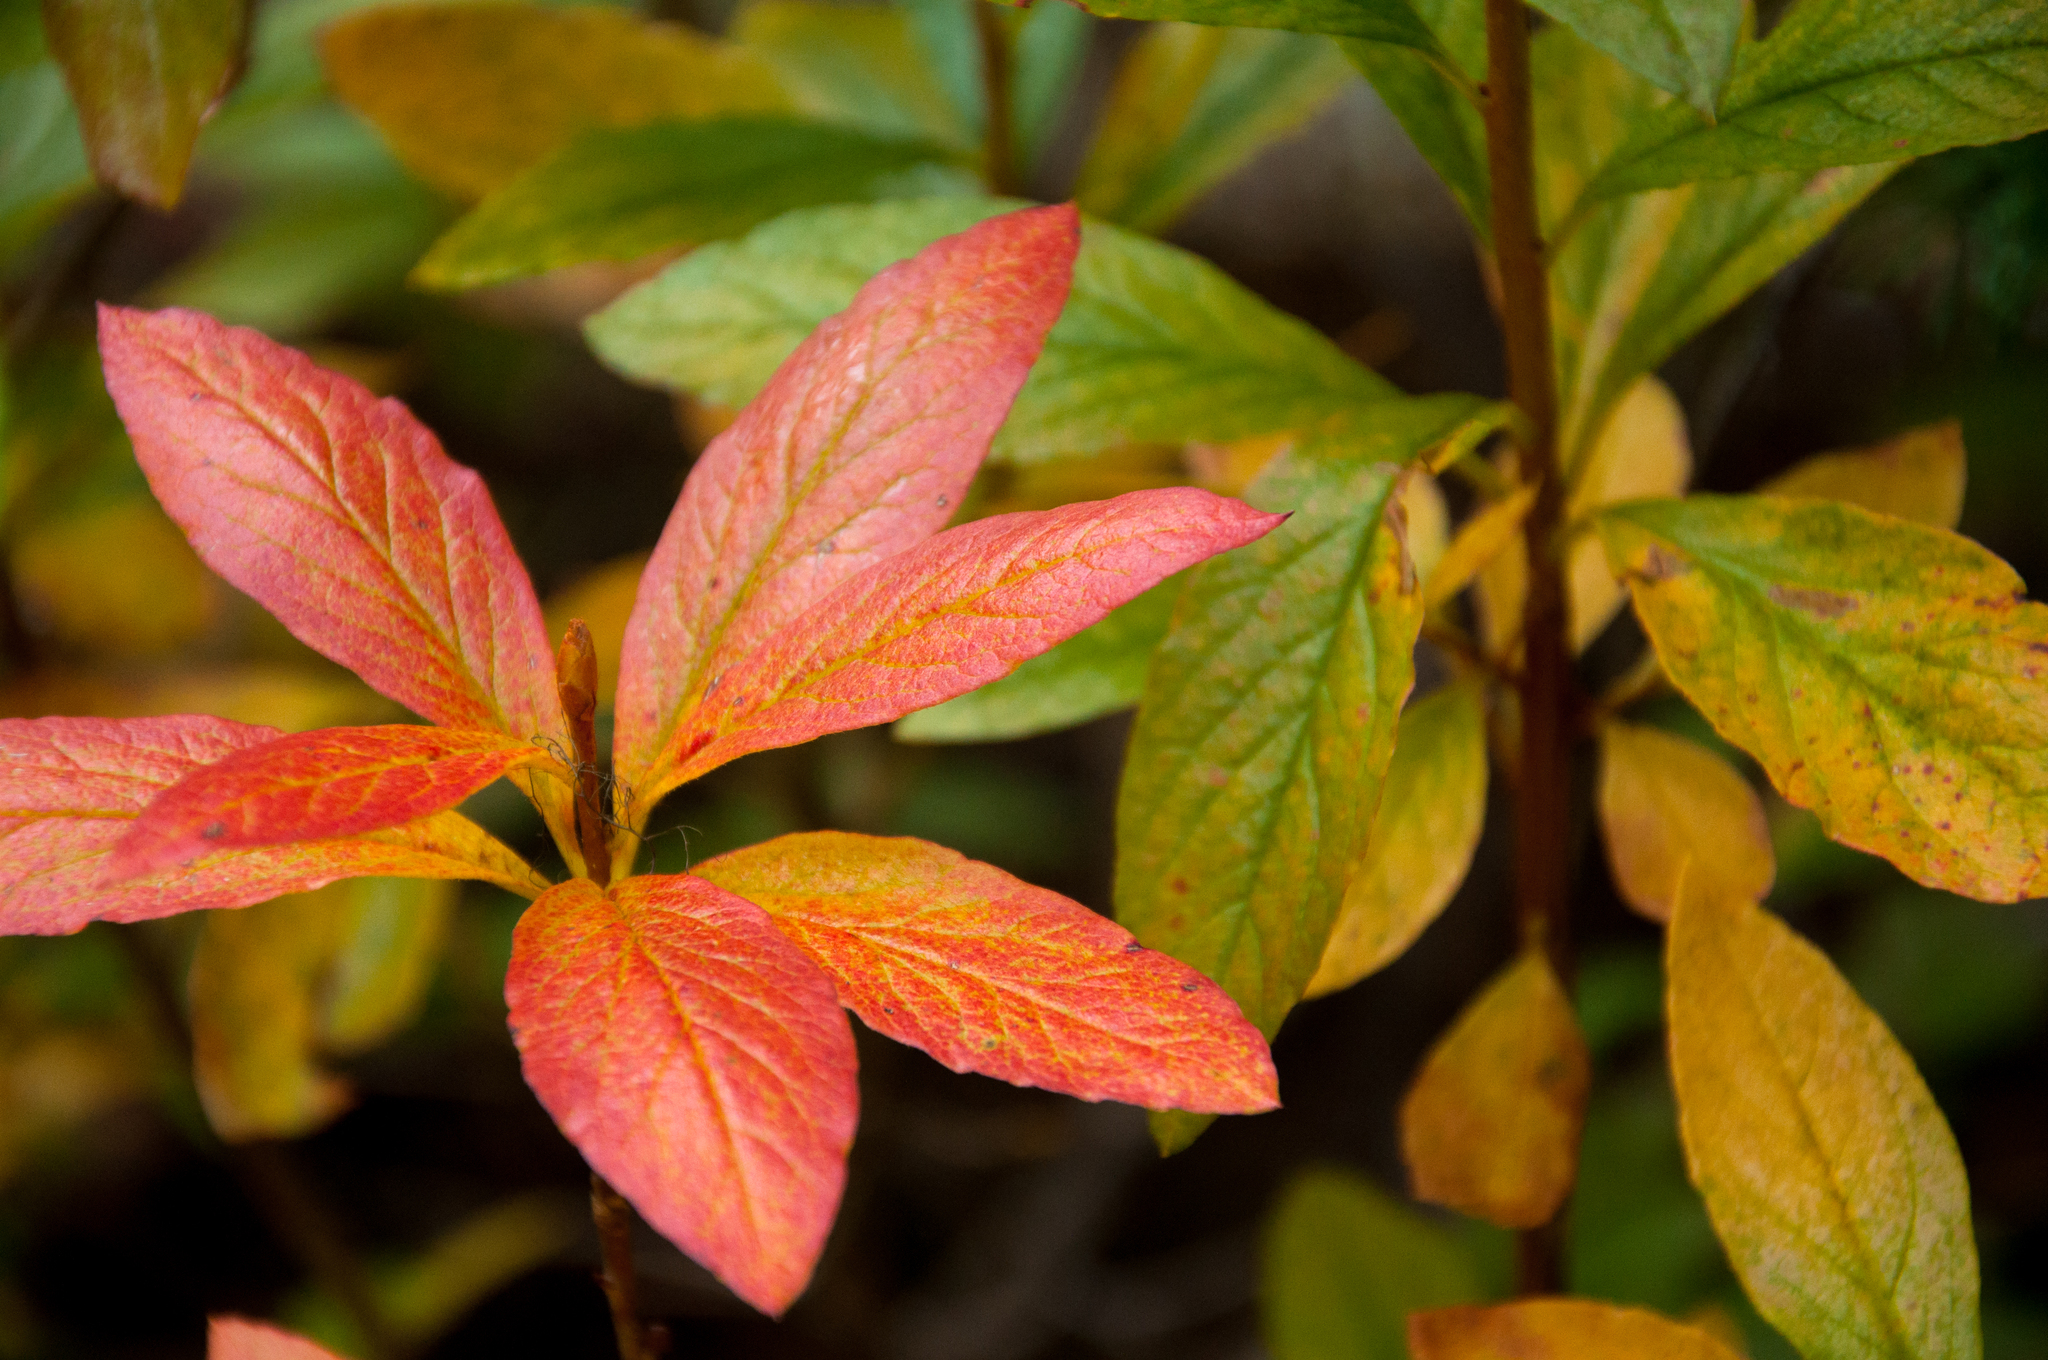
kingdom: Plantae
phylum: Tracheophyta
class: Magnoliopsida
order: Ericales
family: Ericaceae
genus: Rhododendron
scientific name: Rhododendron albiflorum
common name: White rhododendron
